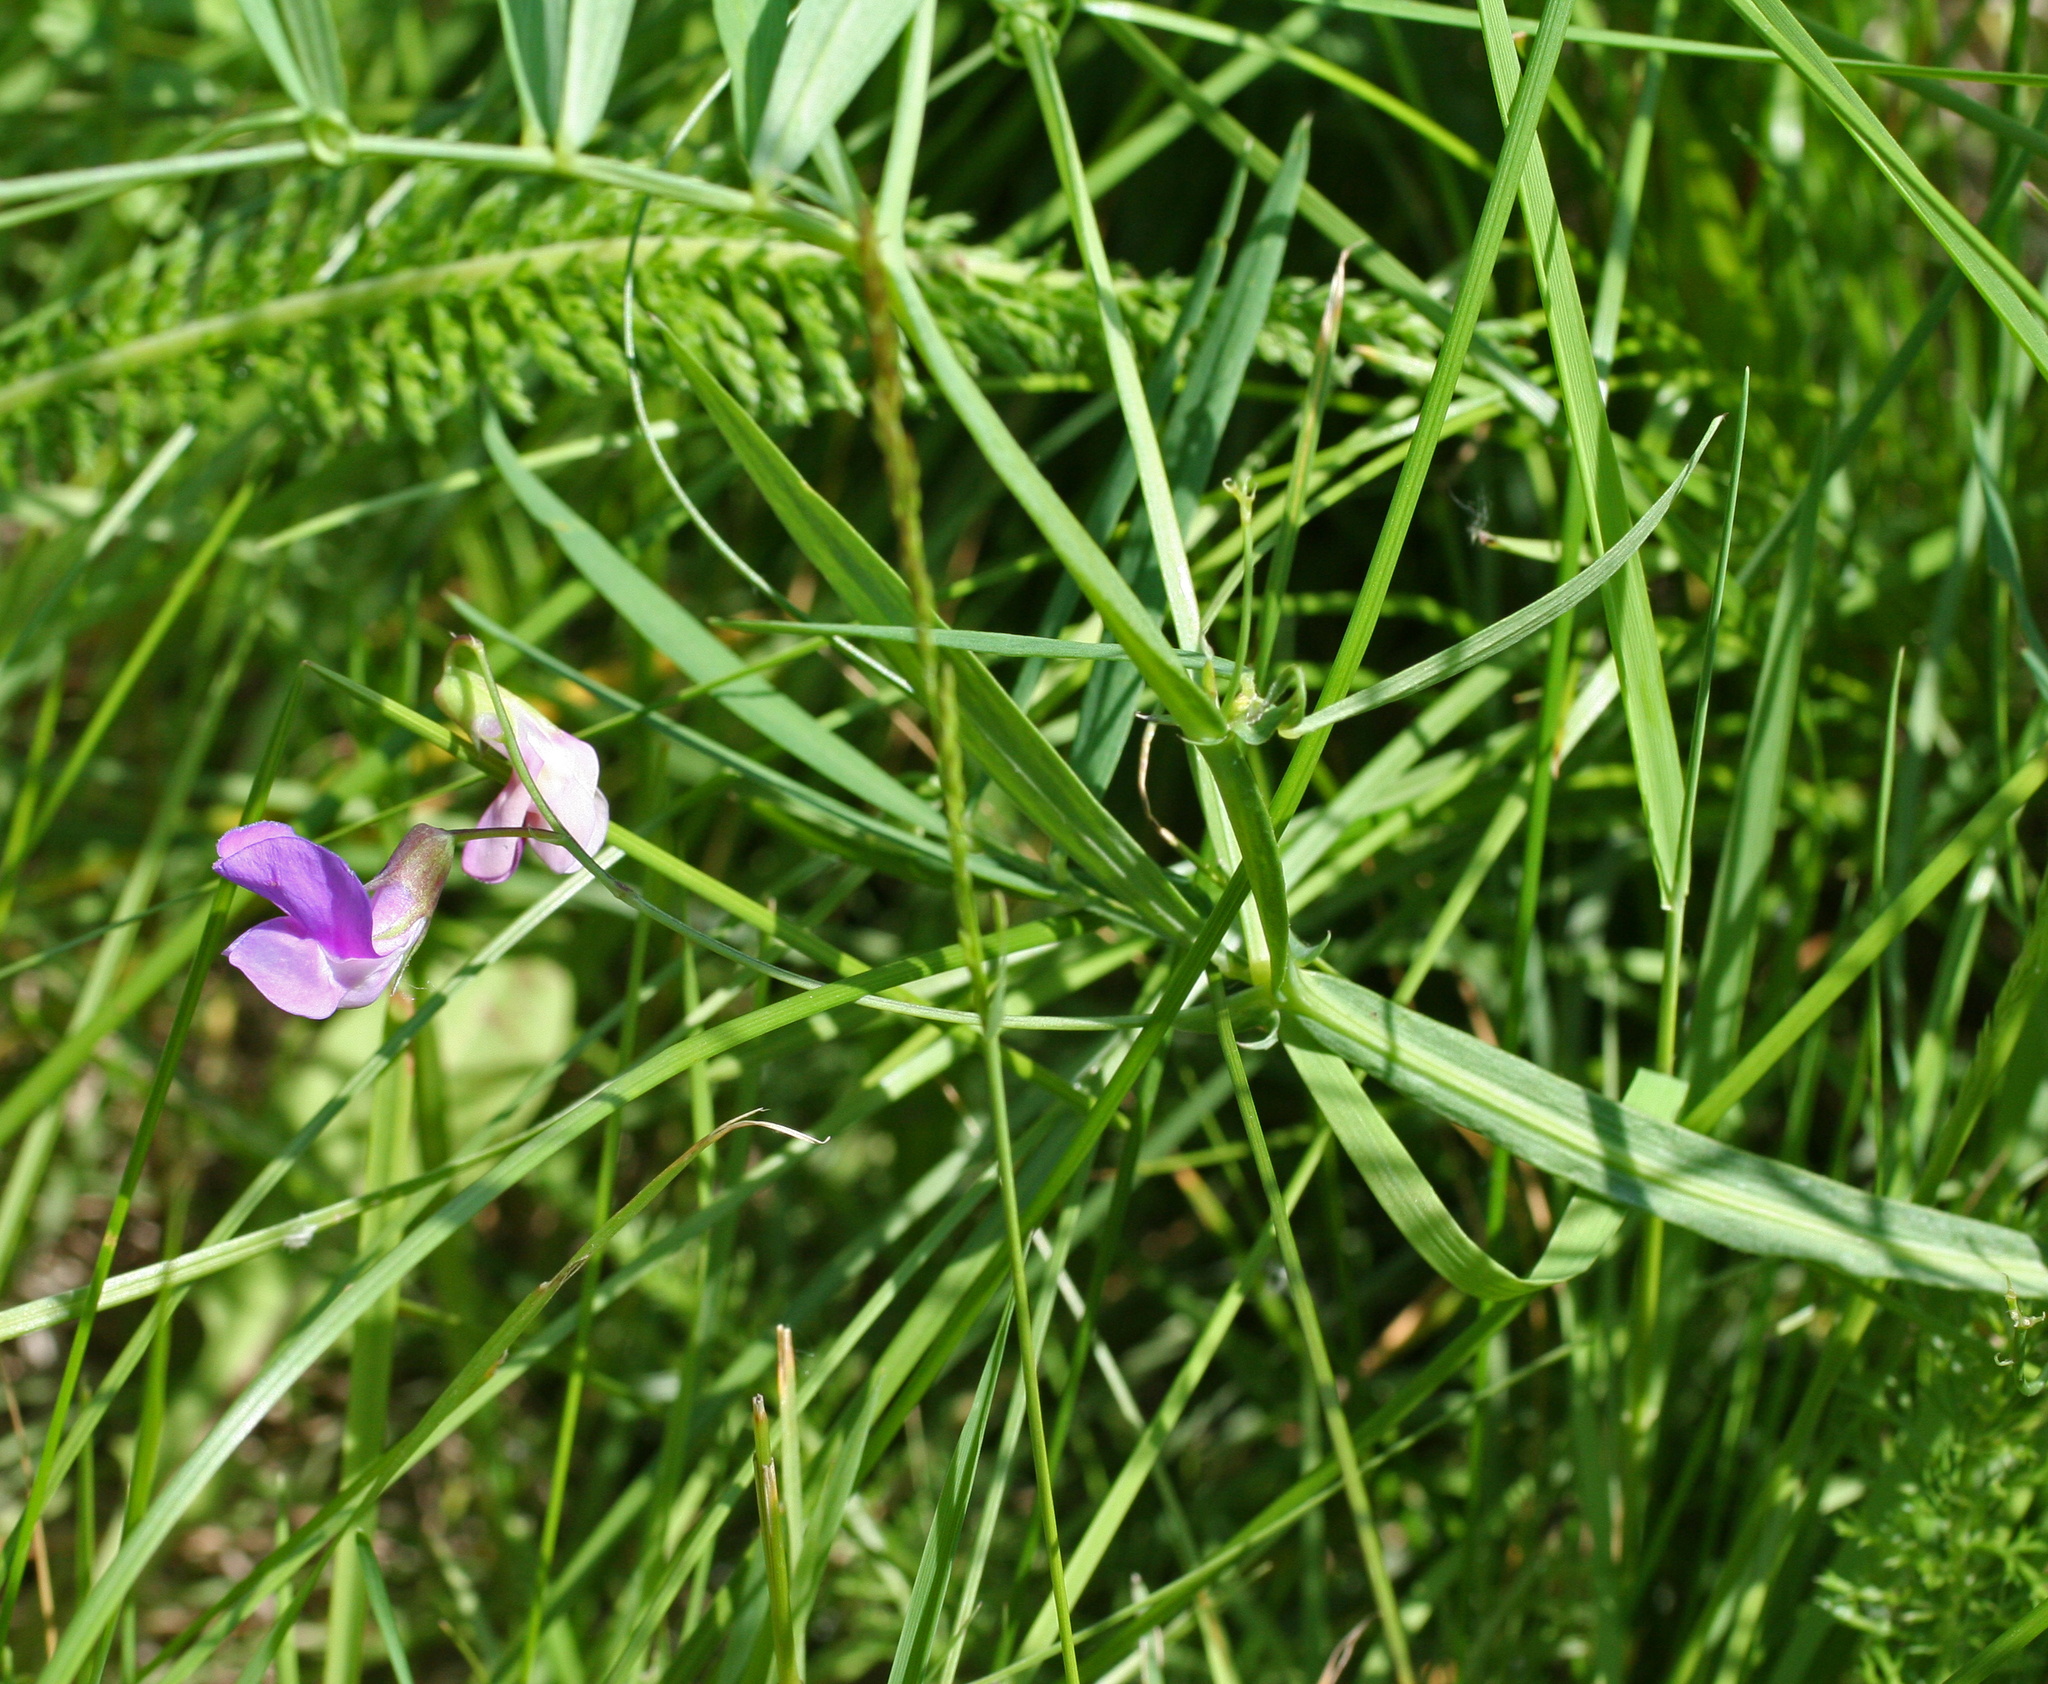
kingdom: Plantae
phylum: Tracheophyta
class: Magnoliopsida
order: Fabales
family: Fabaceae
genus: Lathyrus
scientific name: Lathyrus palustris
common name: Marsh pea
